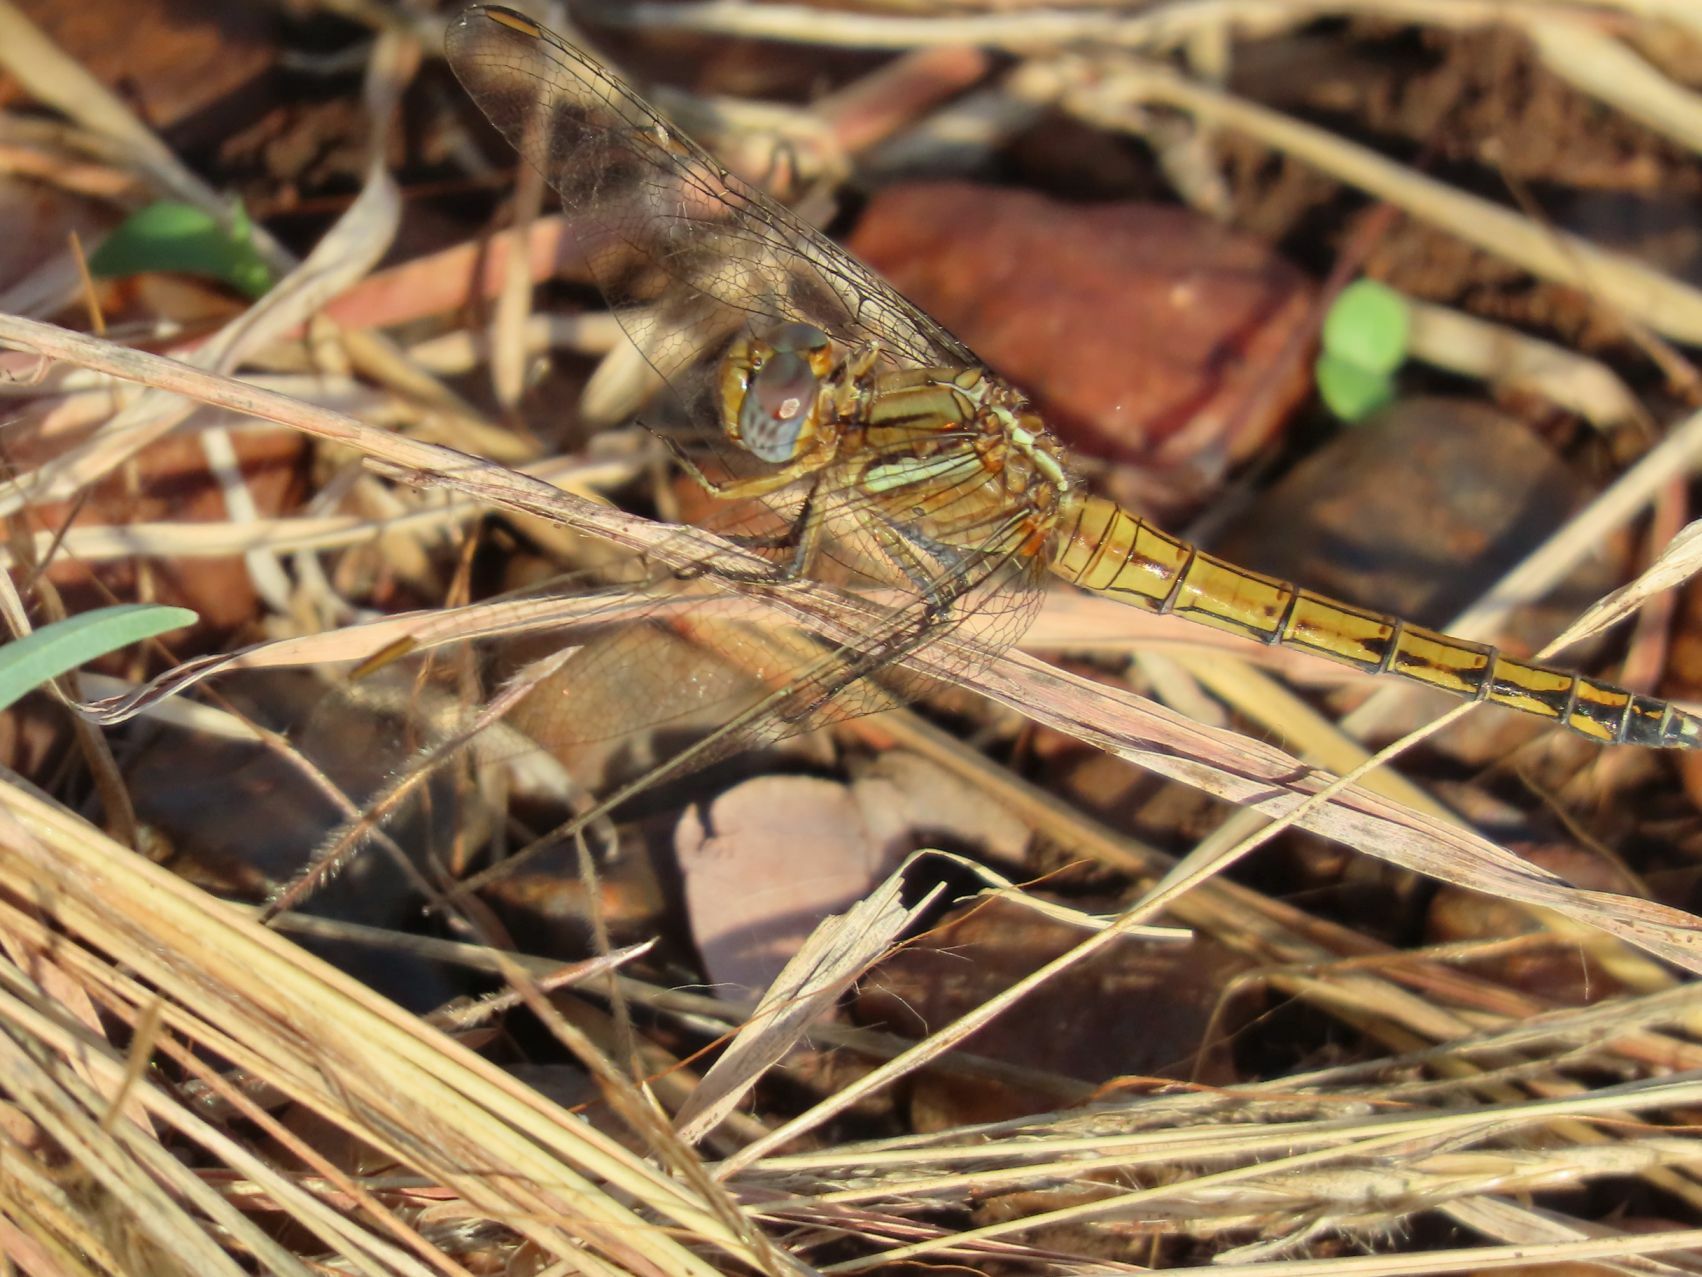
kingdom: Animalia
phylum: Arthropoda
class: Insecta
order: Odonata
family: Libellulidae
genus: Orthetrum
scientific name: Orthetrum chrysostigma
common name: Epaulet skimmer
